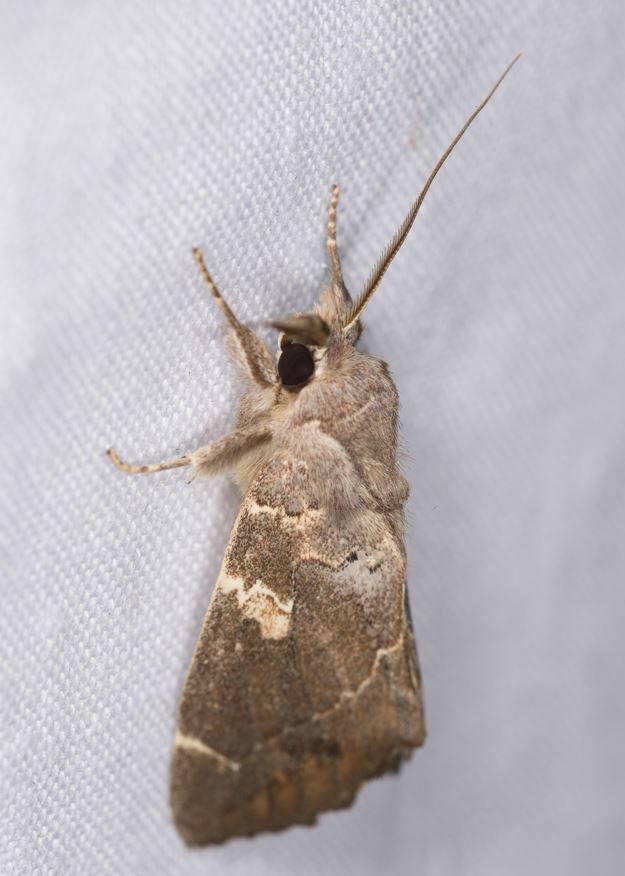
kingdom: Animalia
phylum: Arthropoda
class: Insecta
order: Lepidoptera
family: Notodontidae
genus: Hemiceras
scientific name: Hemiceras angulinea
